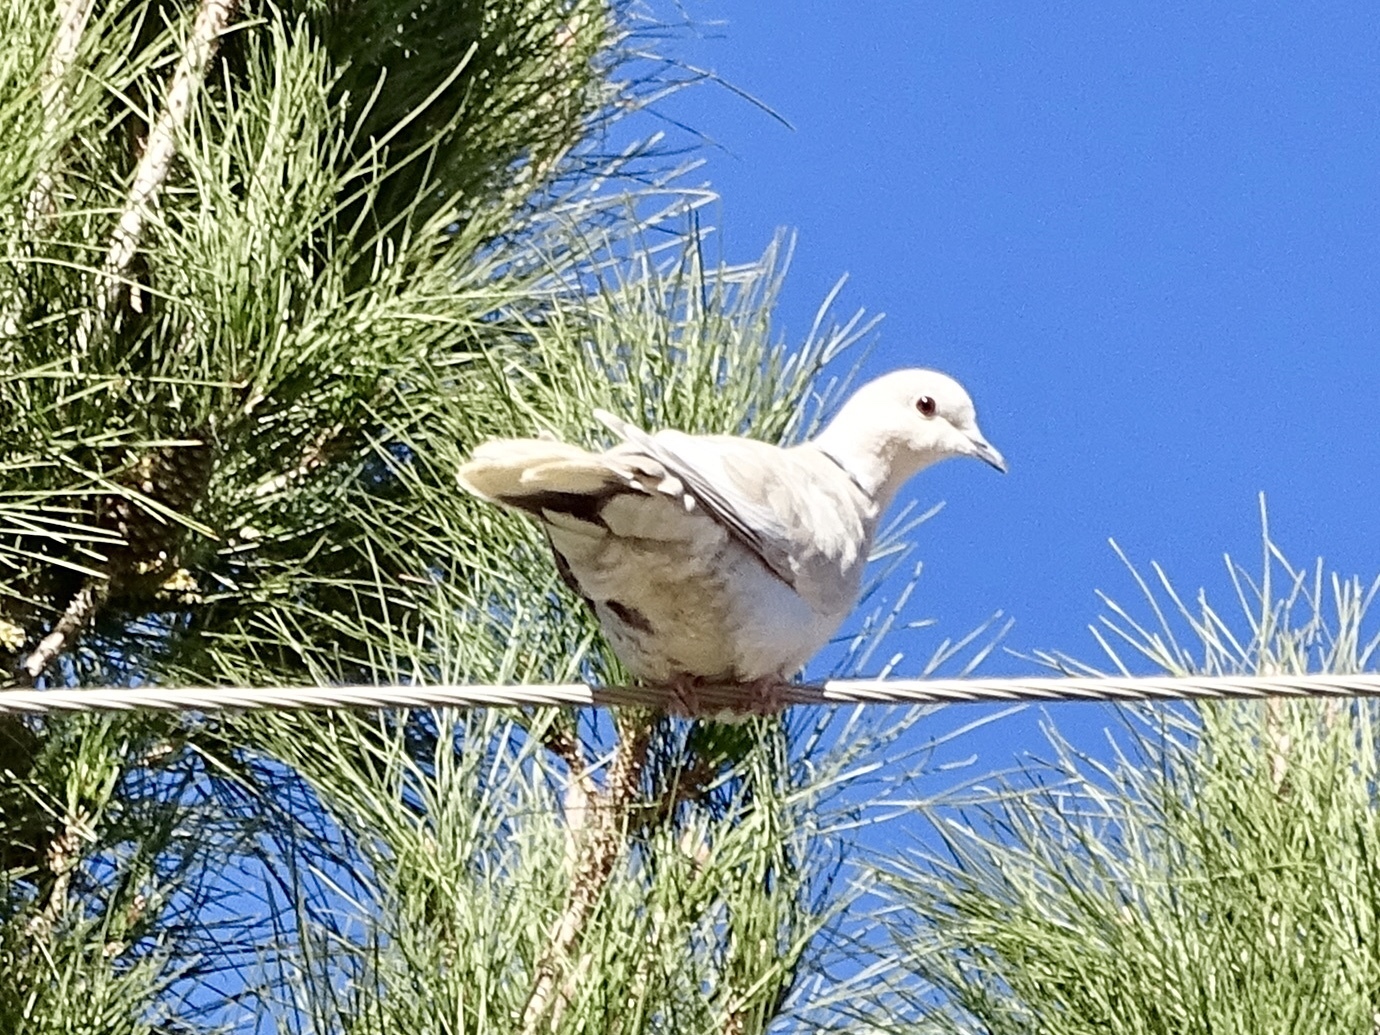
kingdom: Animalia
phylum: Chordata
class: Aves
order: Columbiformes
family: Columbidae
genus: Streptopelia
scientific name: Streptopelia decaocto
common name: Eurasian collared dove
